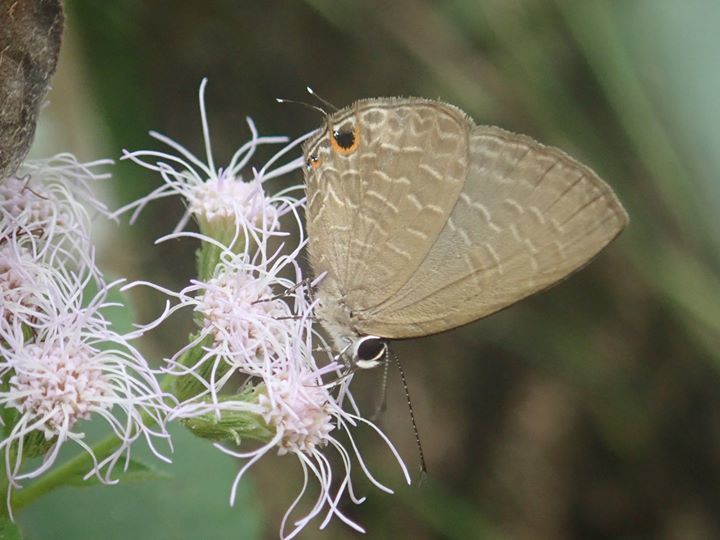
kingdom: Animalia
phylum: Arthropoda
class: Insecta
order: Lepidoptera
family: Lycaenidae
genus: Jamides
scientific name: Jamides bochus
